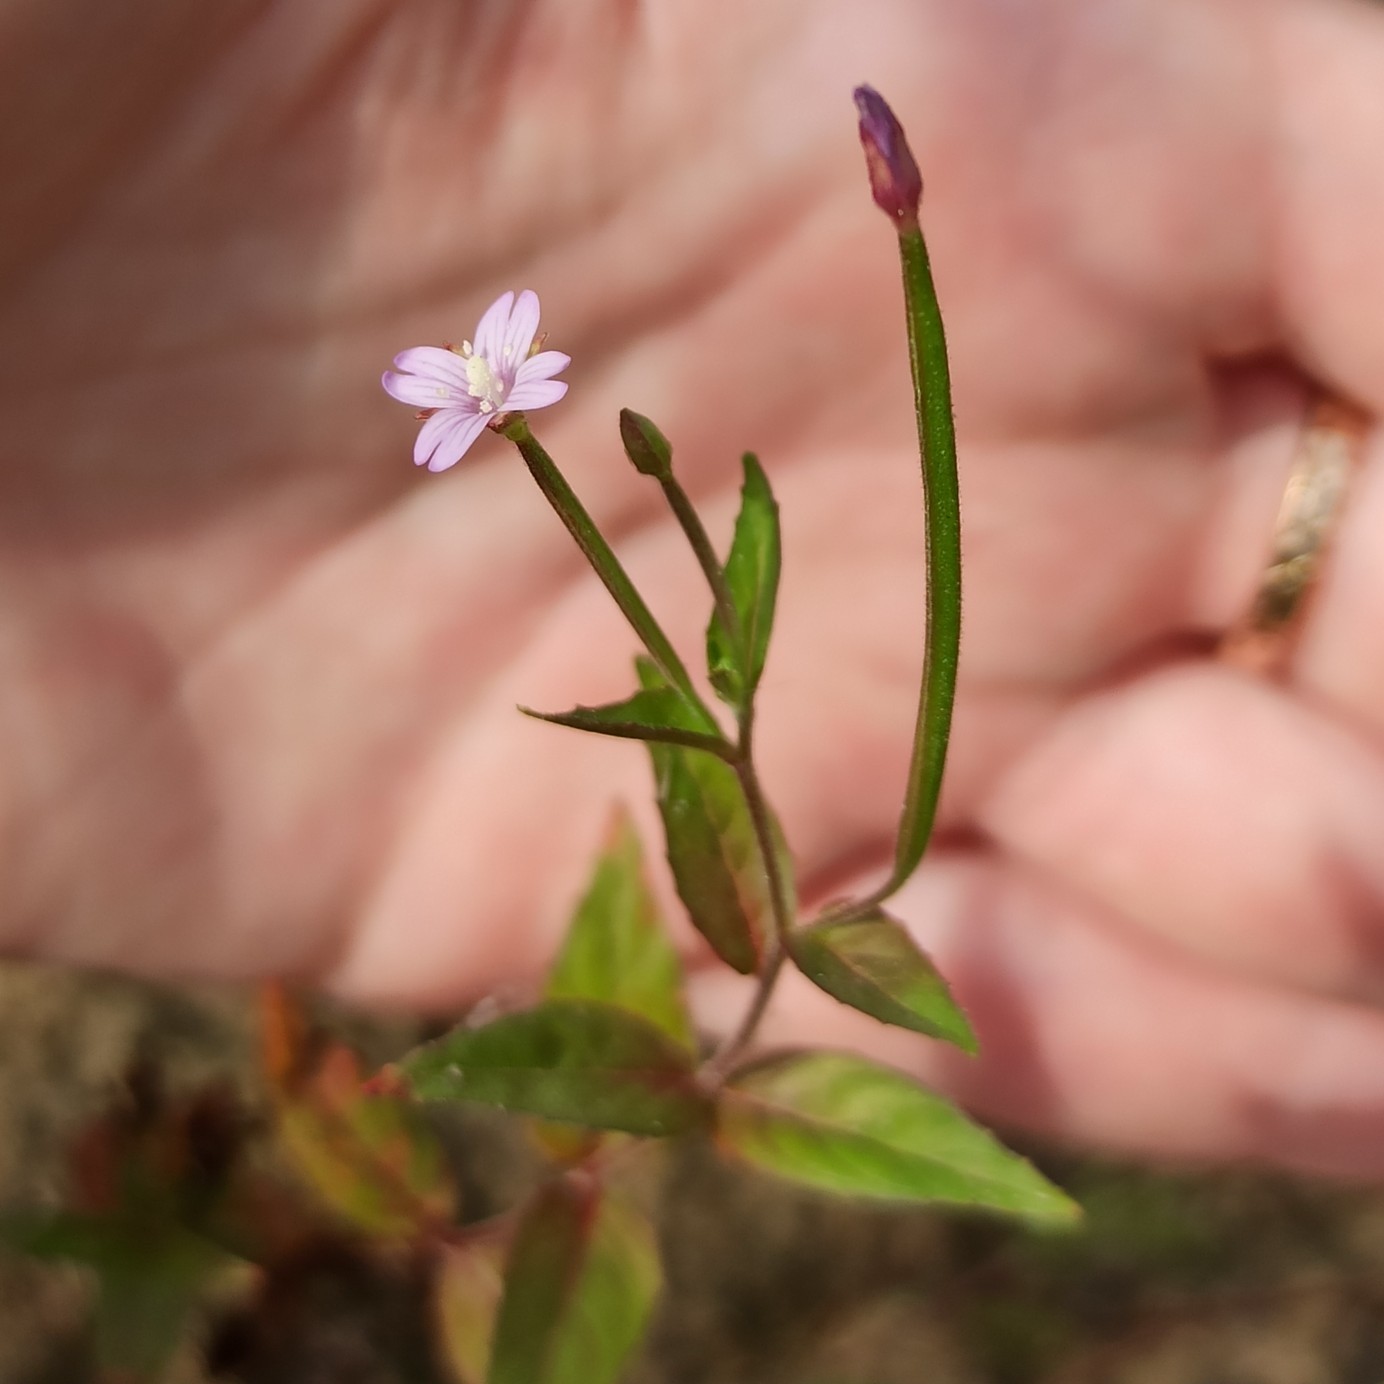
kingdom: Plantae
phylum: Tracheophyta
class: Magnoliopsida
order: Myrtales
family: Onagraceae
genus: Epilobium
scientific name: Epilobium ciliatum
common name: American willowherb
